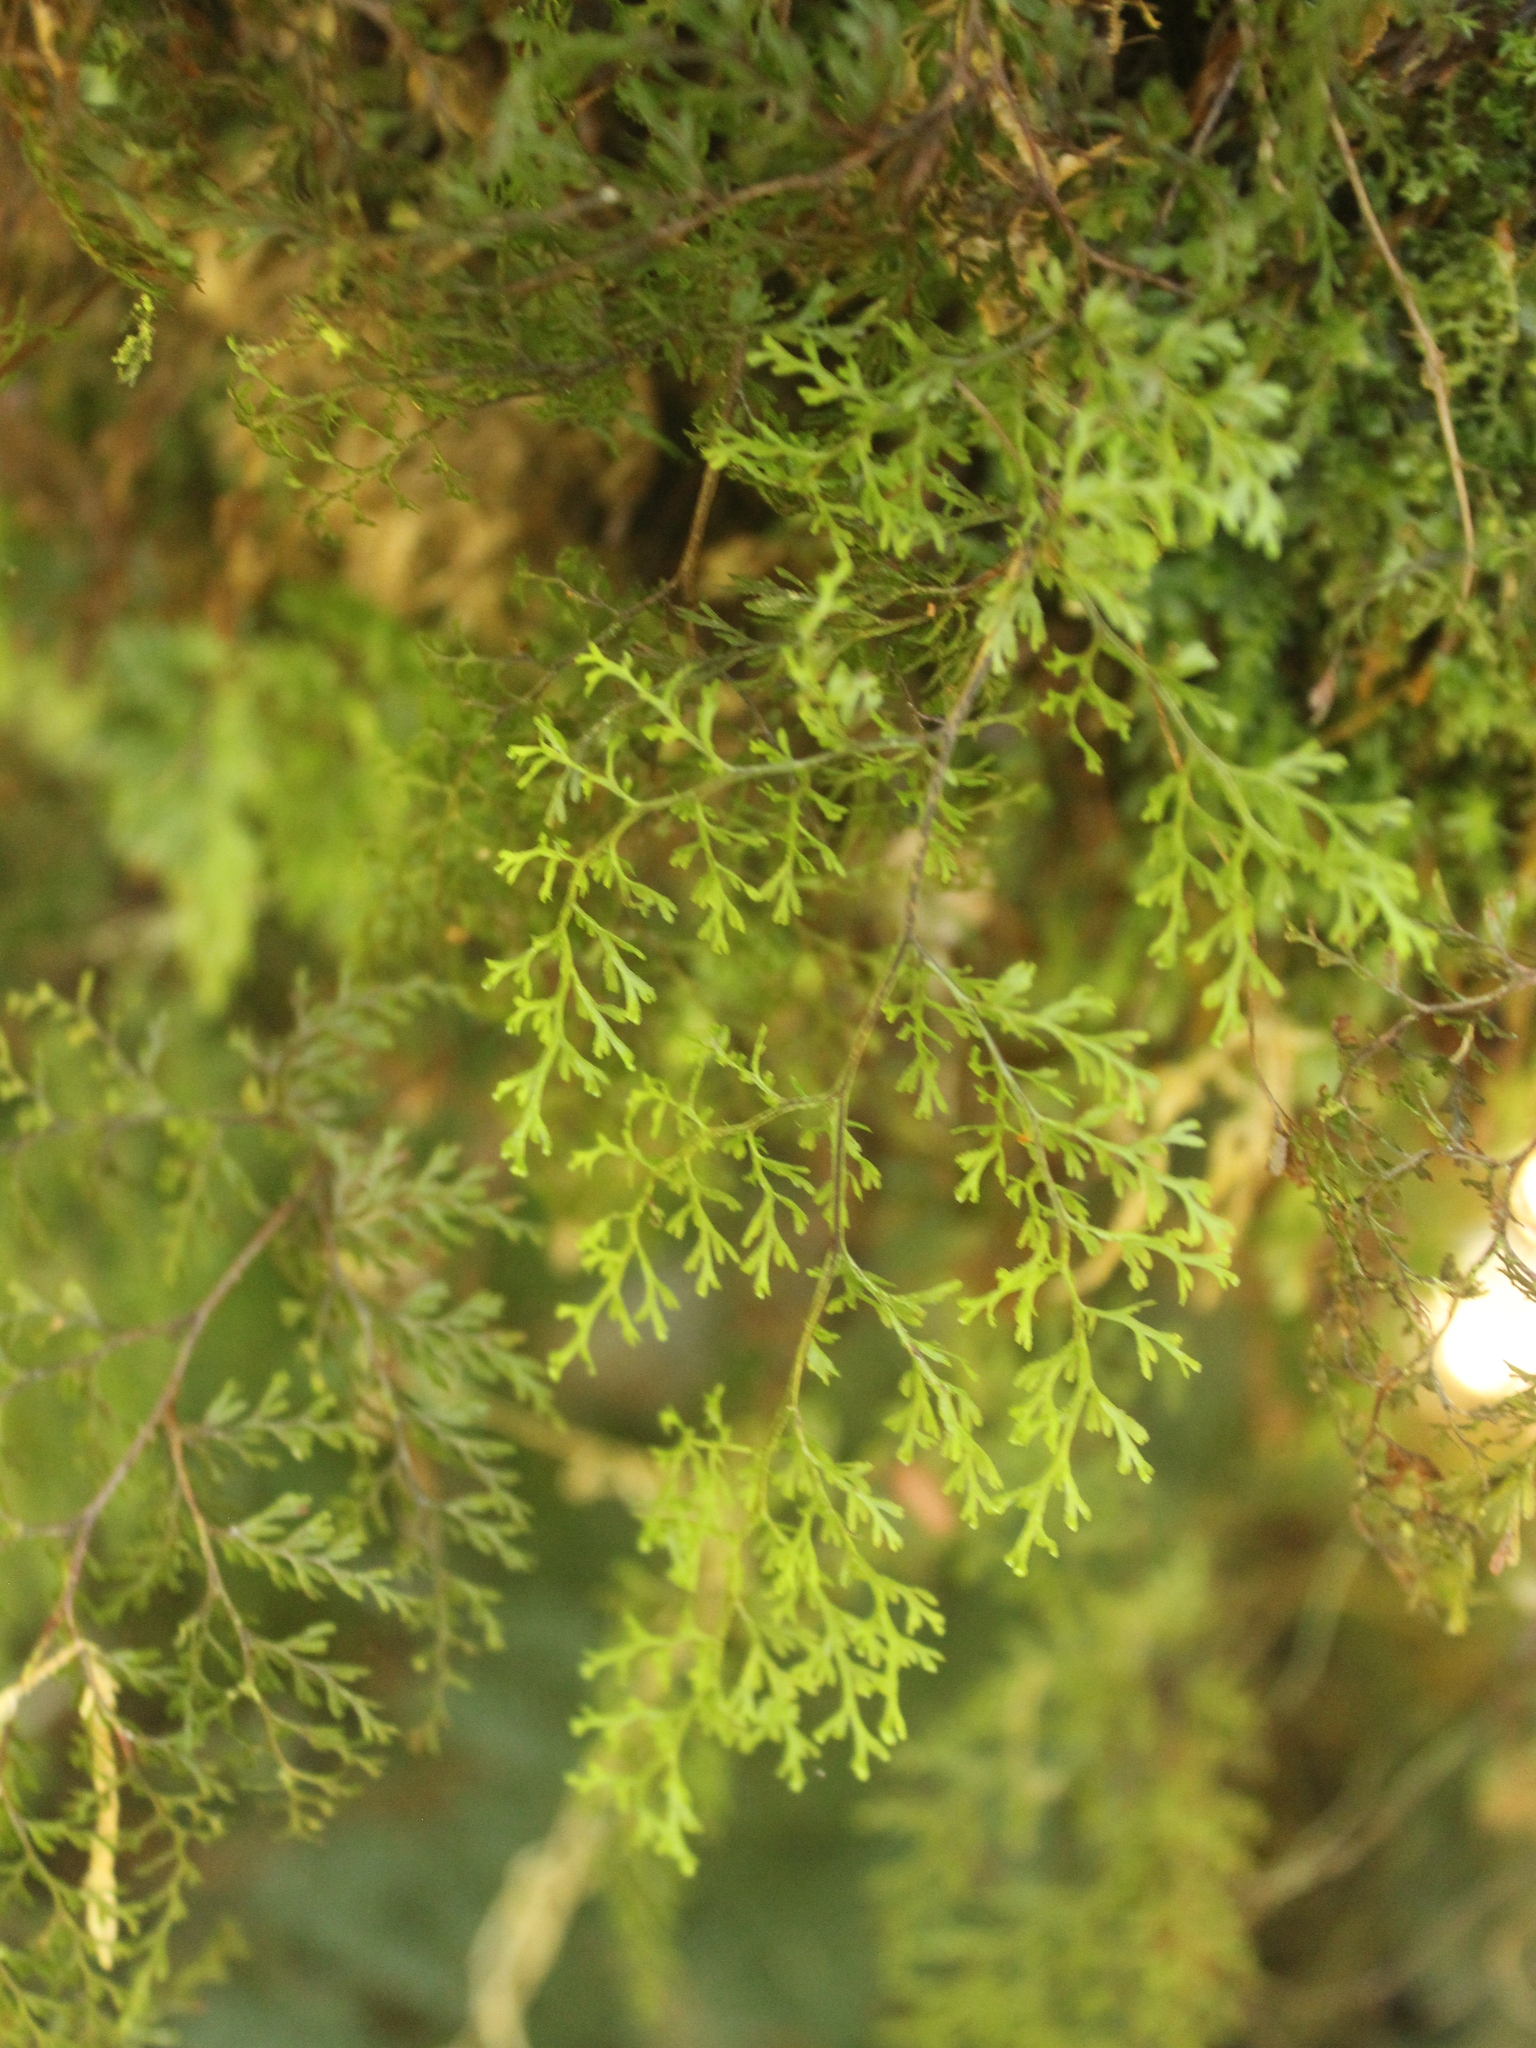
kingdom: Plantae
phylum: Tracheophyta
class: Polypodiopsida
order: Hymenophyllales
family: Hymenophyllaceae
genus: Hymenophyllum
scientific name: Hymenophyllum bivalve
